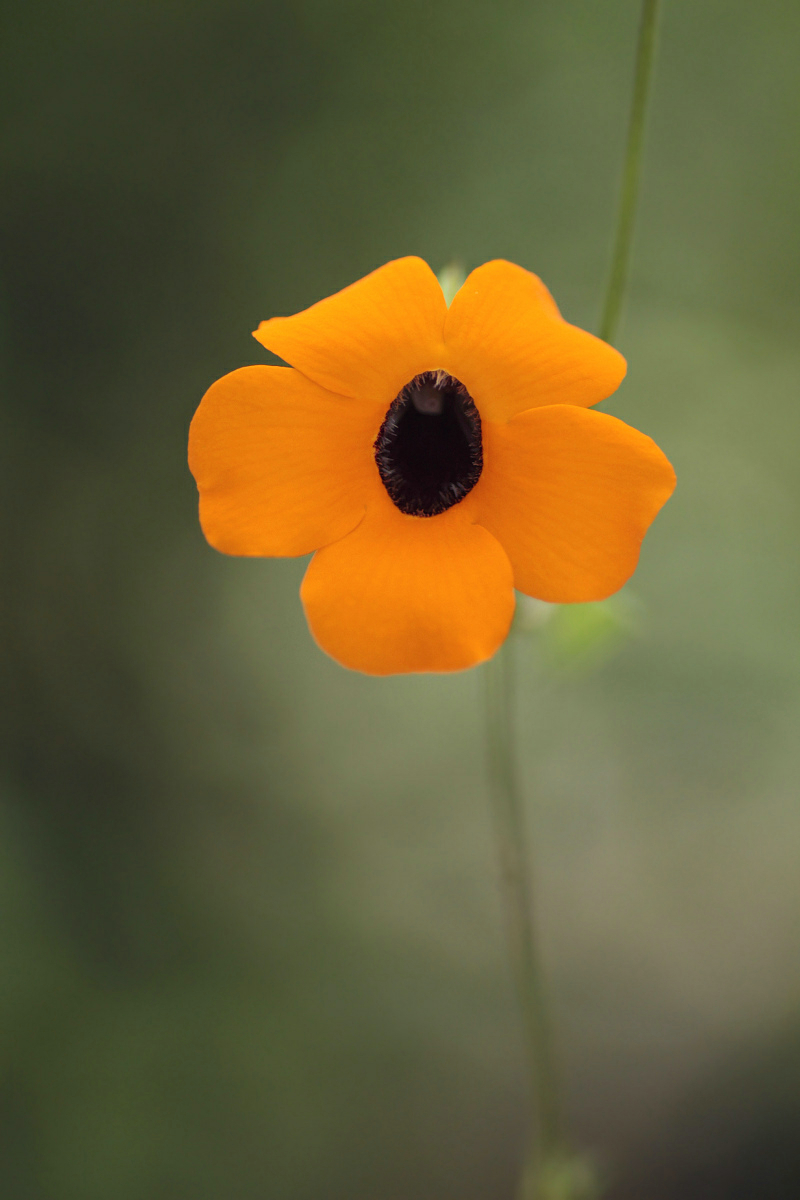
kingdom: Plantae
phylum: Tracheophyta
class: Magnoliopsida
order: Lamiales
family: Acanthaceae
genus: Thunbergia
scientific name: Thunbergia alata
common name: Blackeyed susan vine
